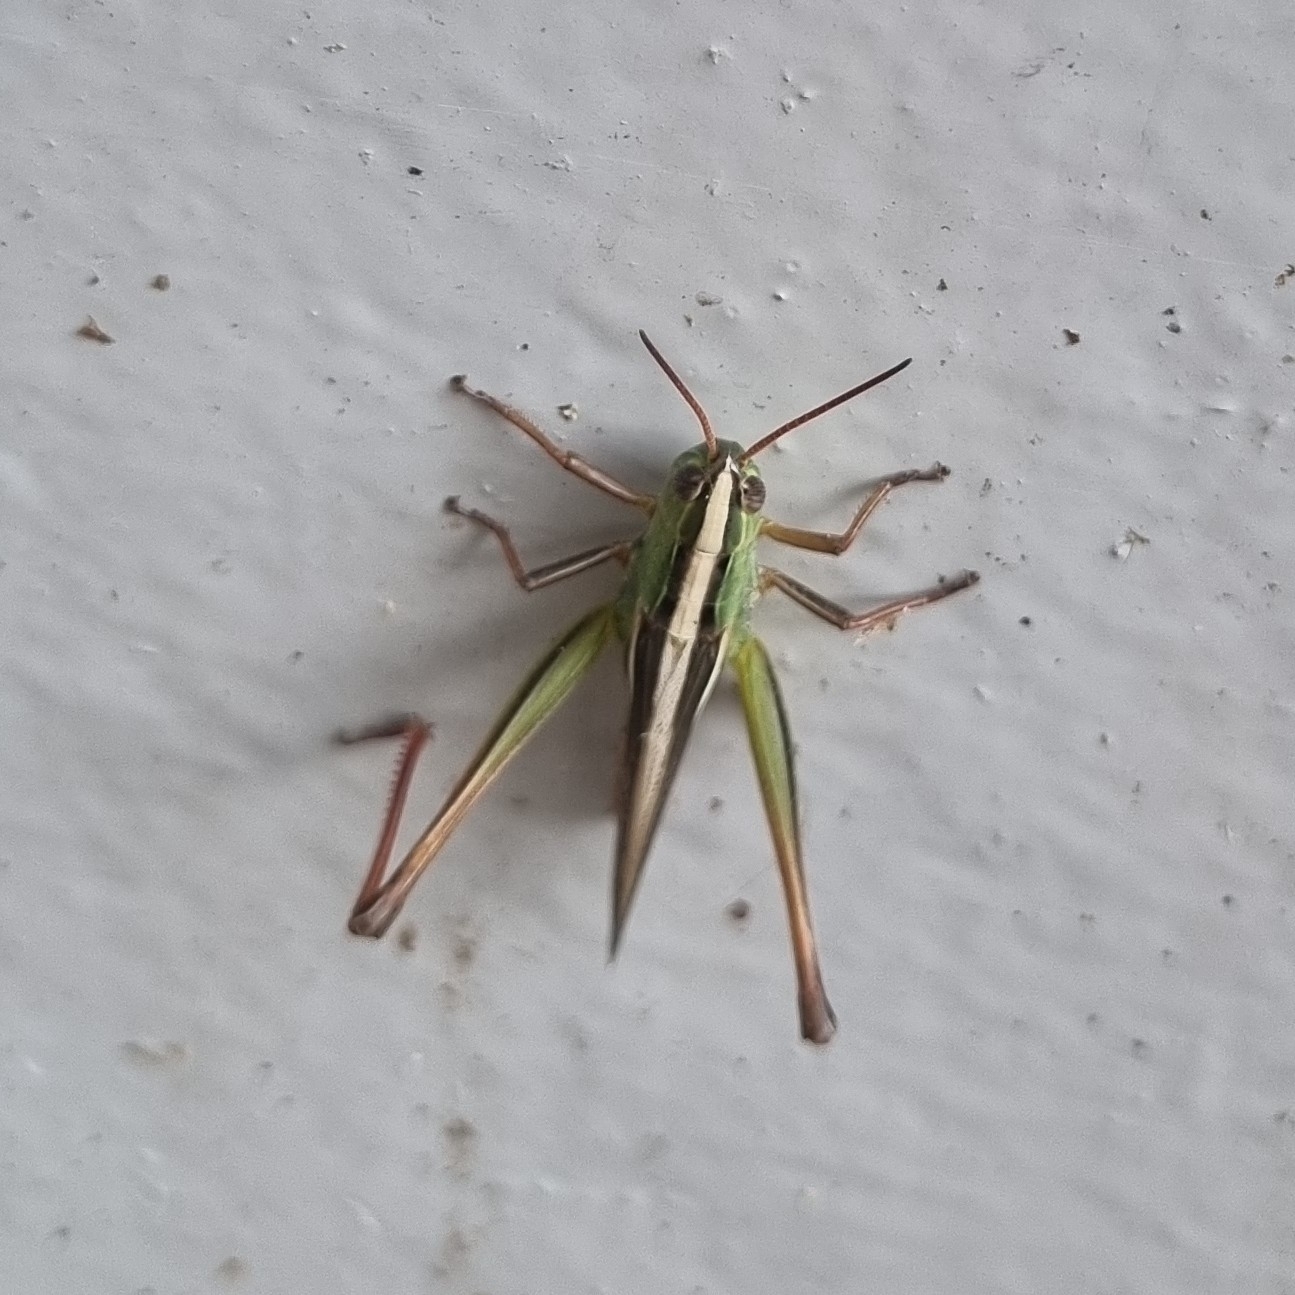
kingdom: Animalia
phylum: Arthropoda
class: Insecta
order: Orthoptera
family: Acrididae
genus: Staurorhectus
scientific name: Staurorhectus longicornis
